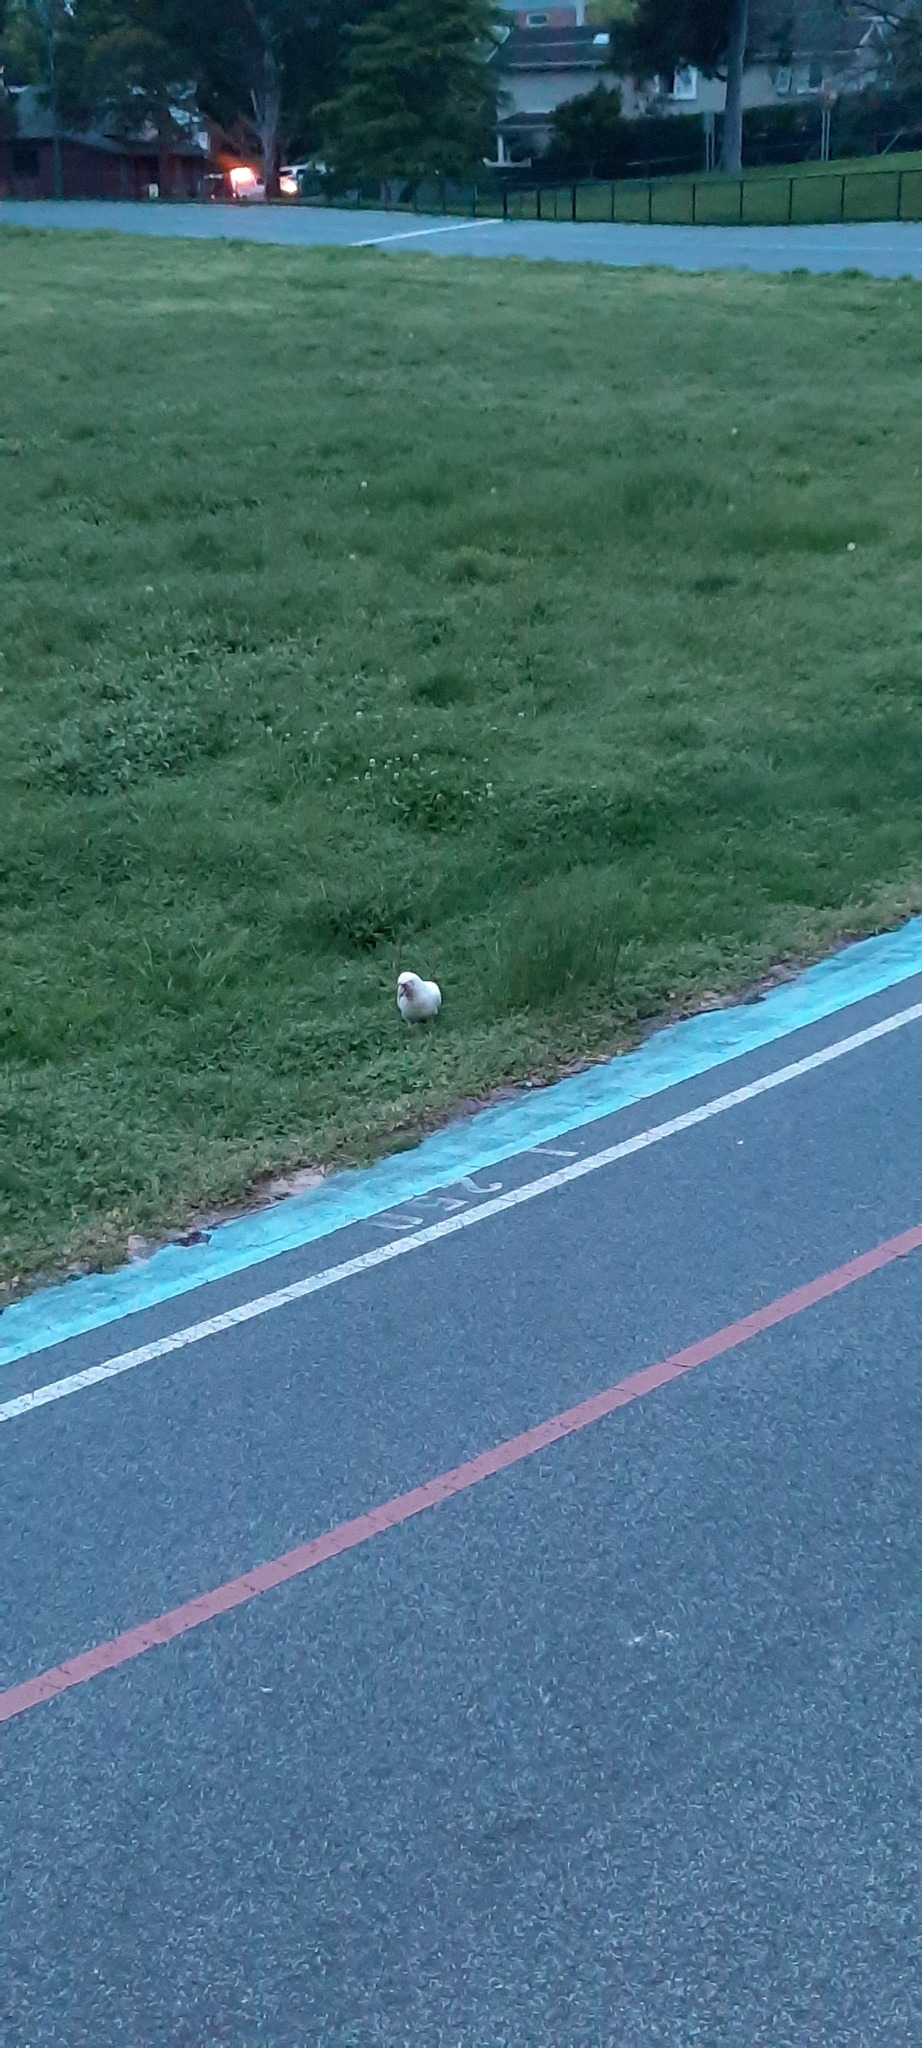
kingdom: Animalia
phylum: Chordata
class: Aves
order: Psittaciformes
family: Psittacidae
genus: Cacatua
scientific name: Cacatua tenuirostris
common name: Long-billed corella
